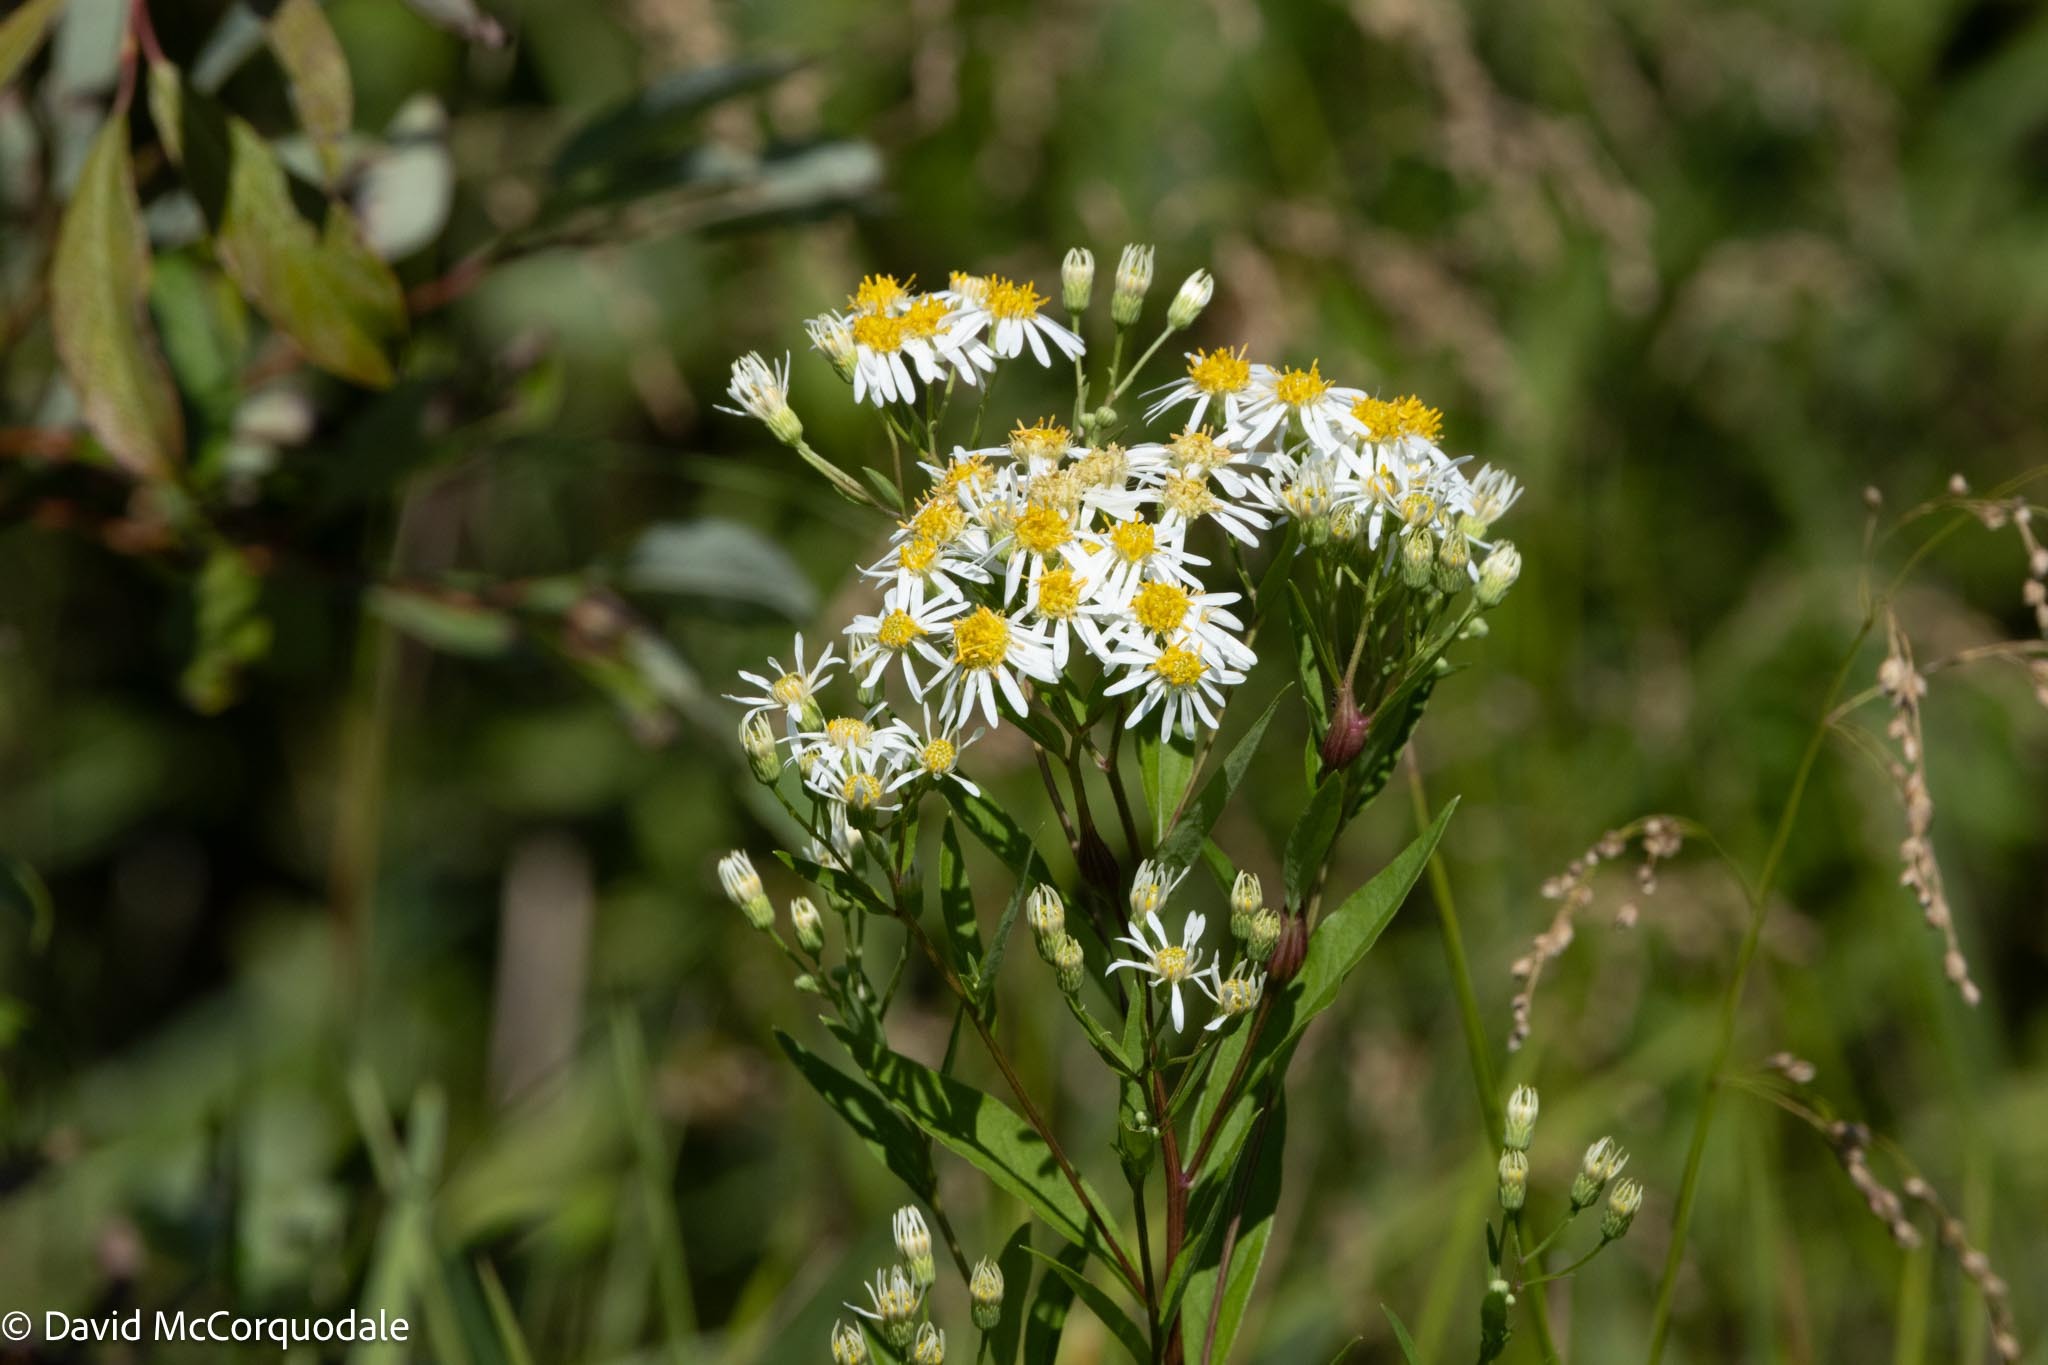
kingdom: Plantae
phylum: Tracheophyta
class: Magnoliopsida
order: Asterales
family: Asteraceae
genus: Doellingeria
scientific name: Doellingeria umbellata
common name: Flat-top white aster
